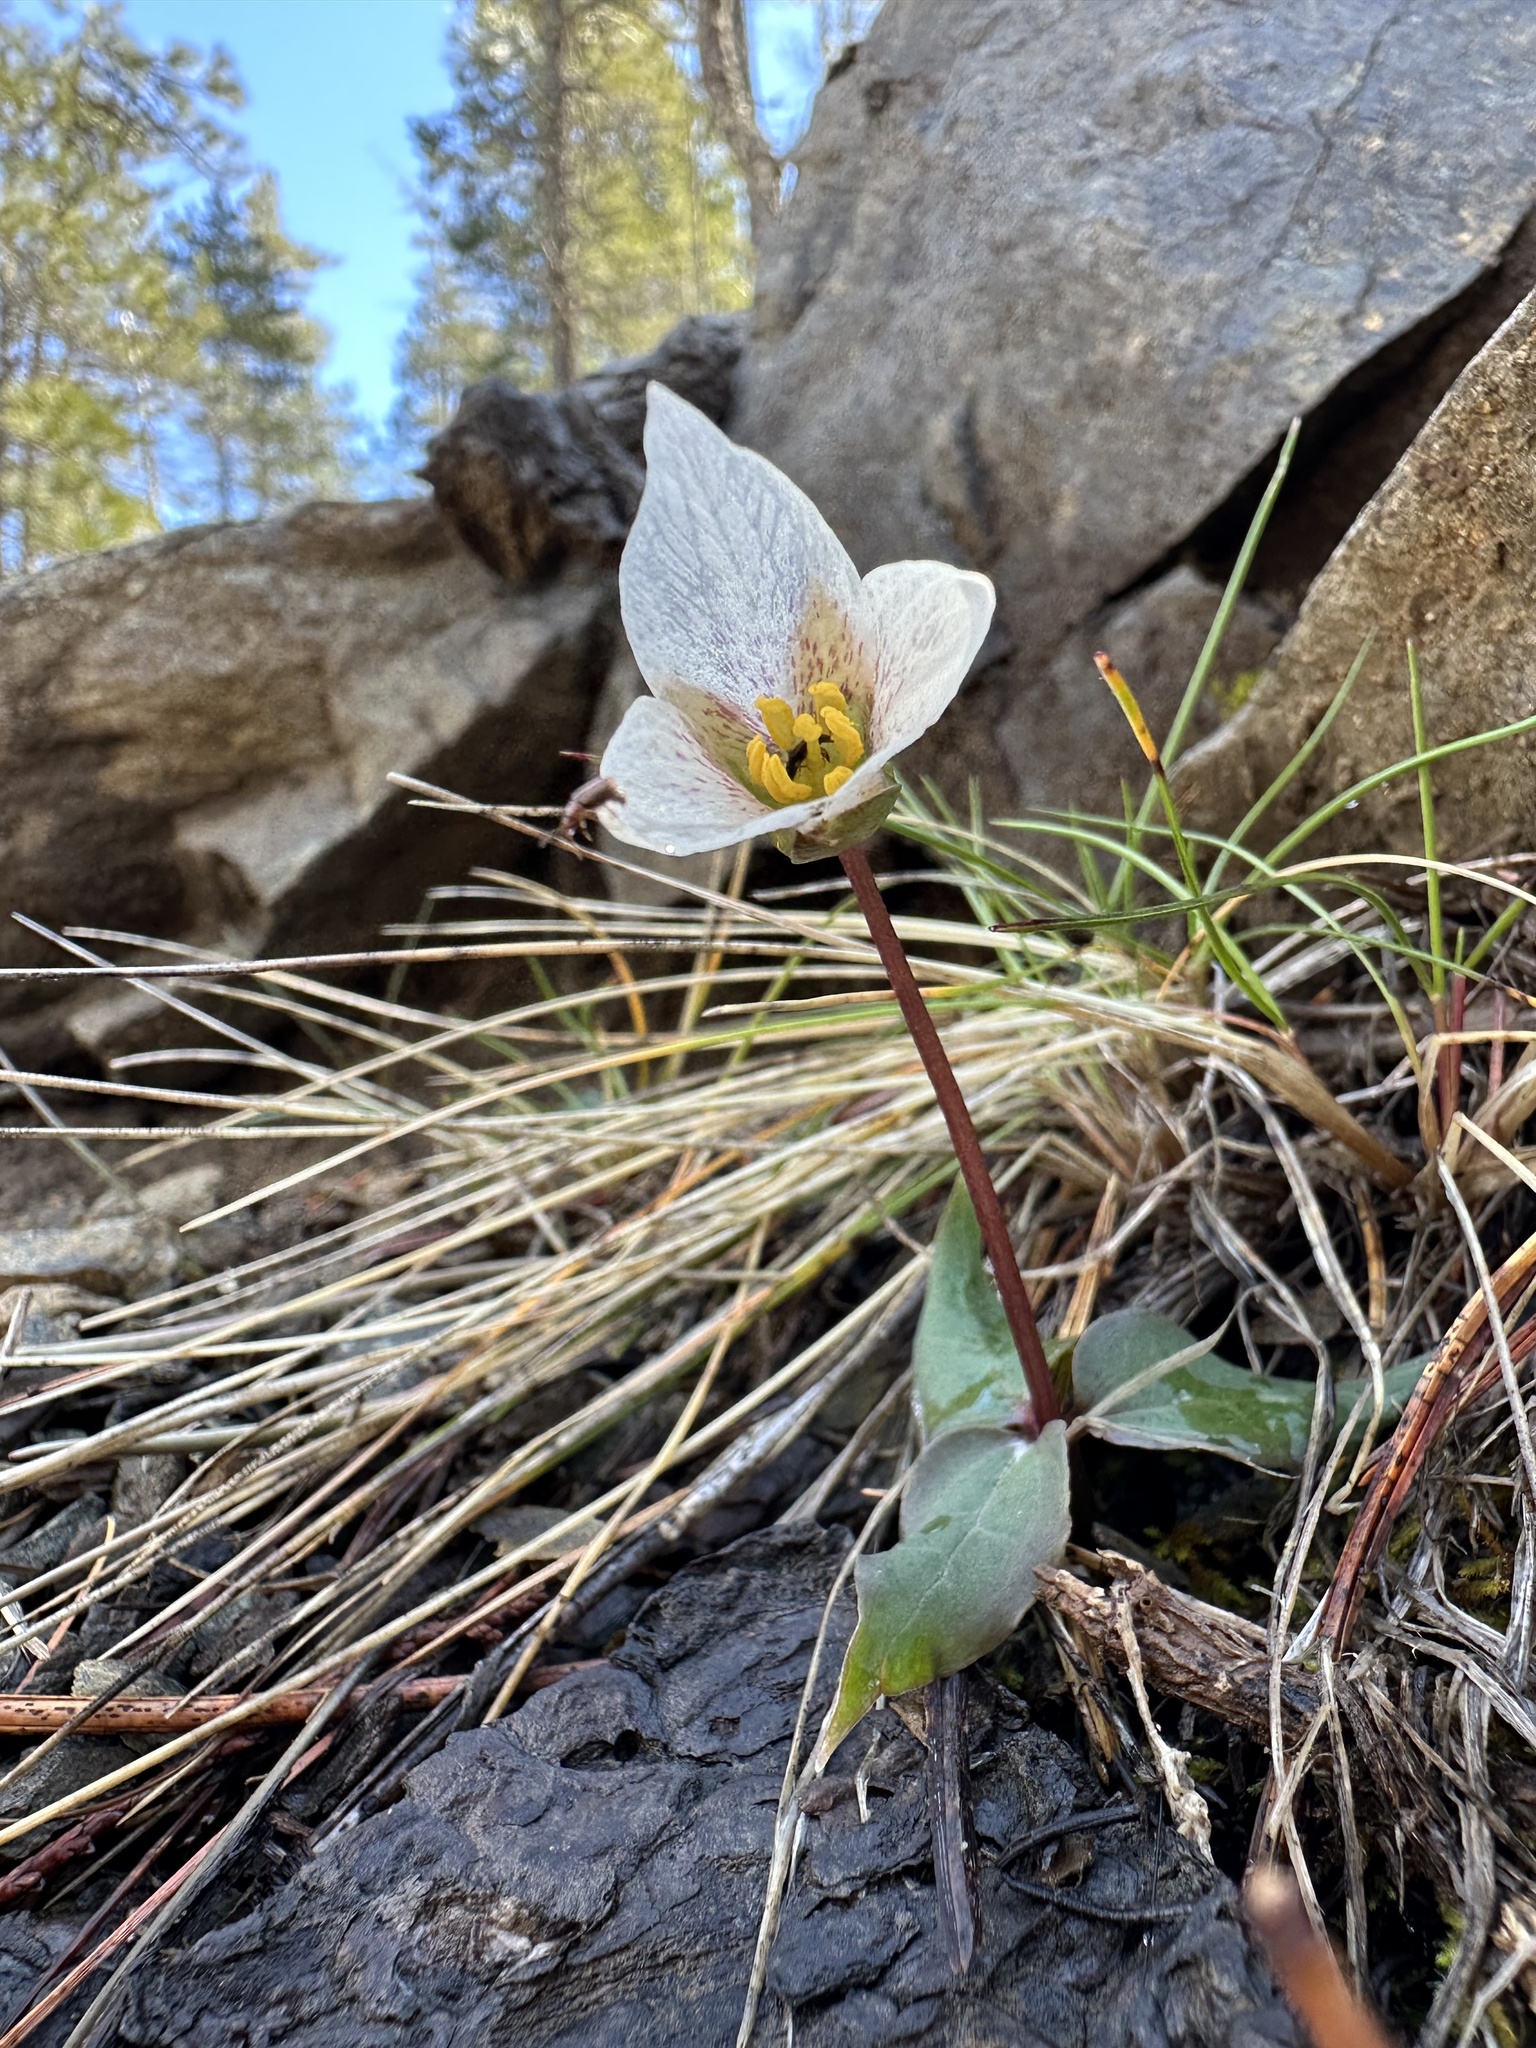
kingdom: Plantae
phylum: Tracheophyta
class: Liliopsida
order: Liliales
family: Melanthiaceae
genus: Pseudotrillium
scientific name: Pseudotrillium rivale
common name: Brook wakerobin
